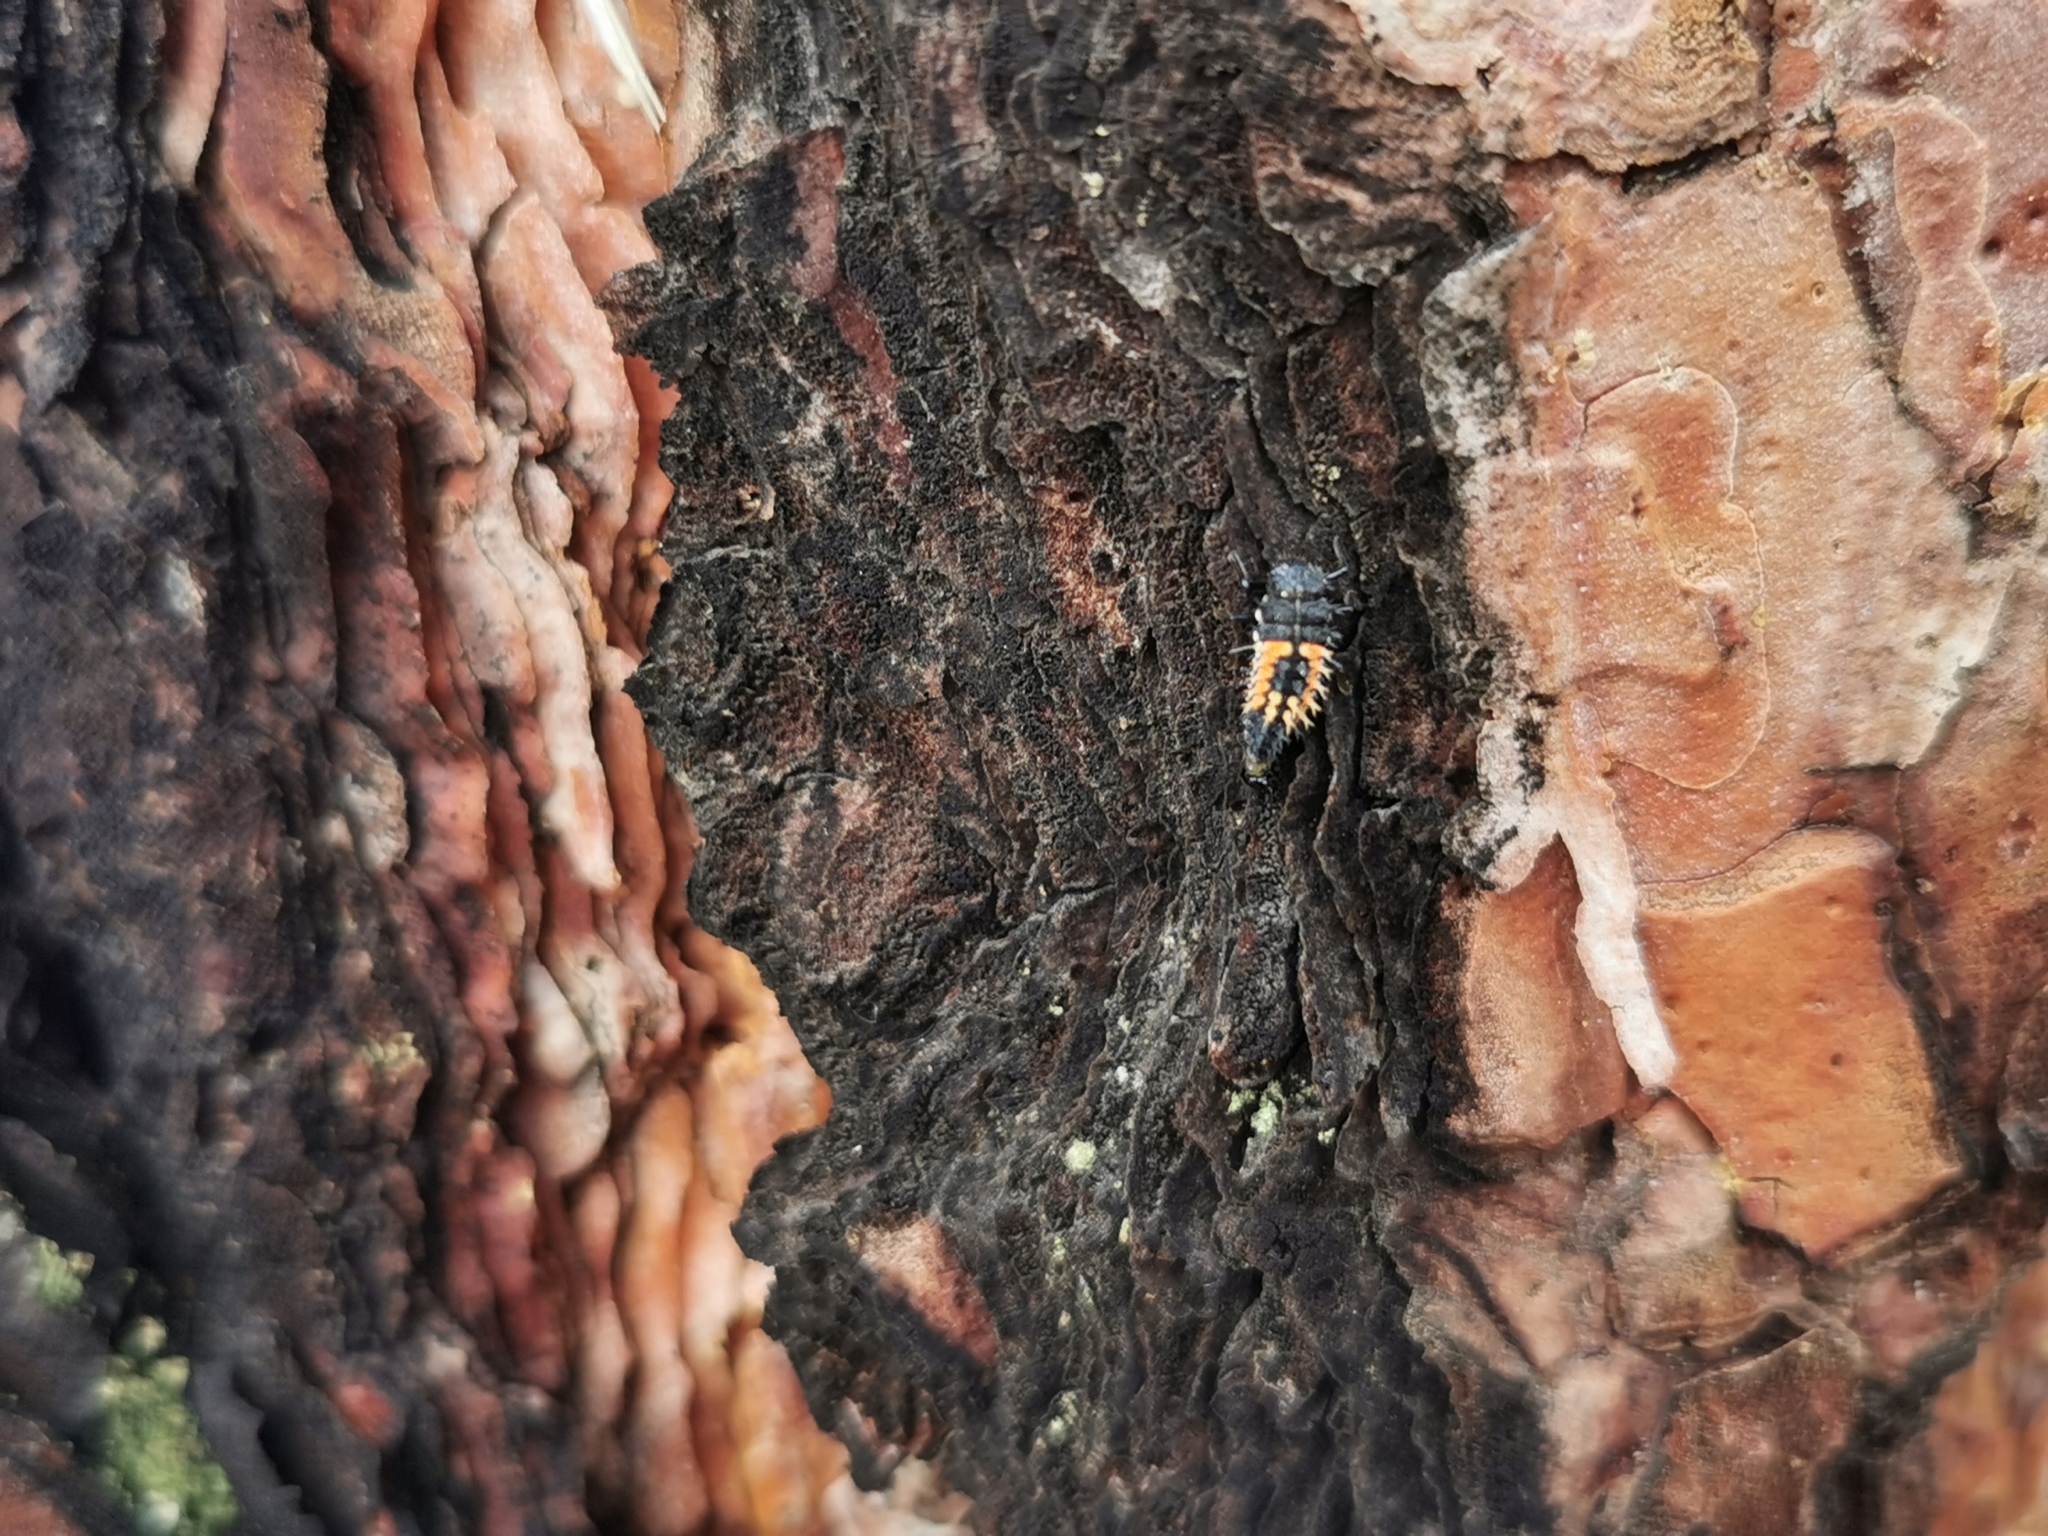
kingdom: Animalia
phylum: Arthropoda
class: Insecta
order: Coleoptera
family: Coccinellidae
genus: Harmonia
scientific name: Harmonia axyridis
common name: Harlequin ladybird
